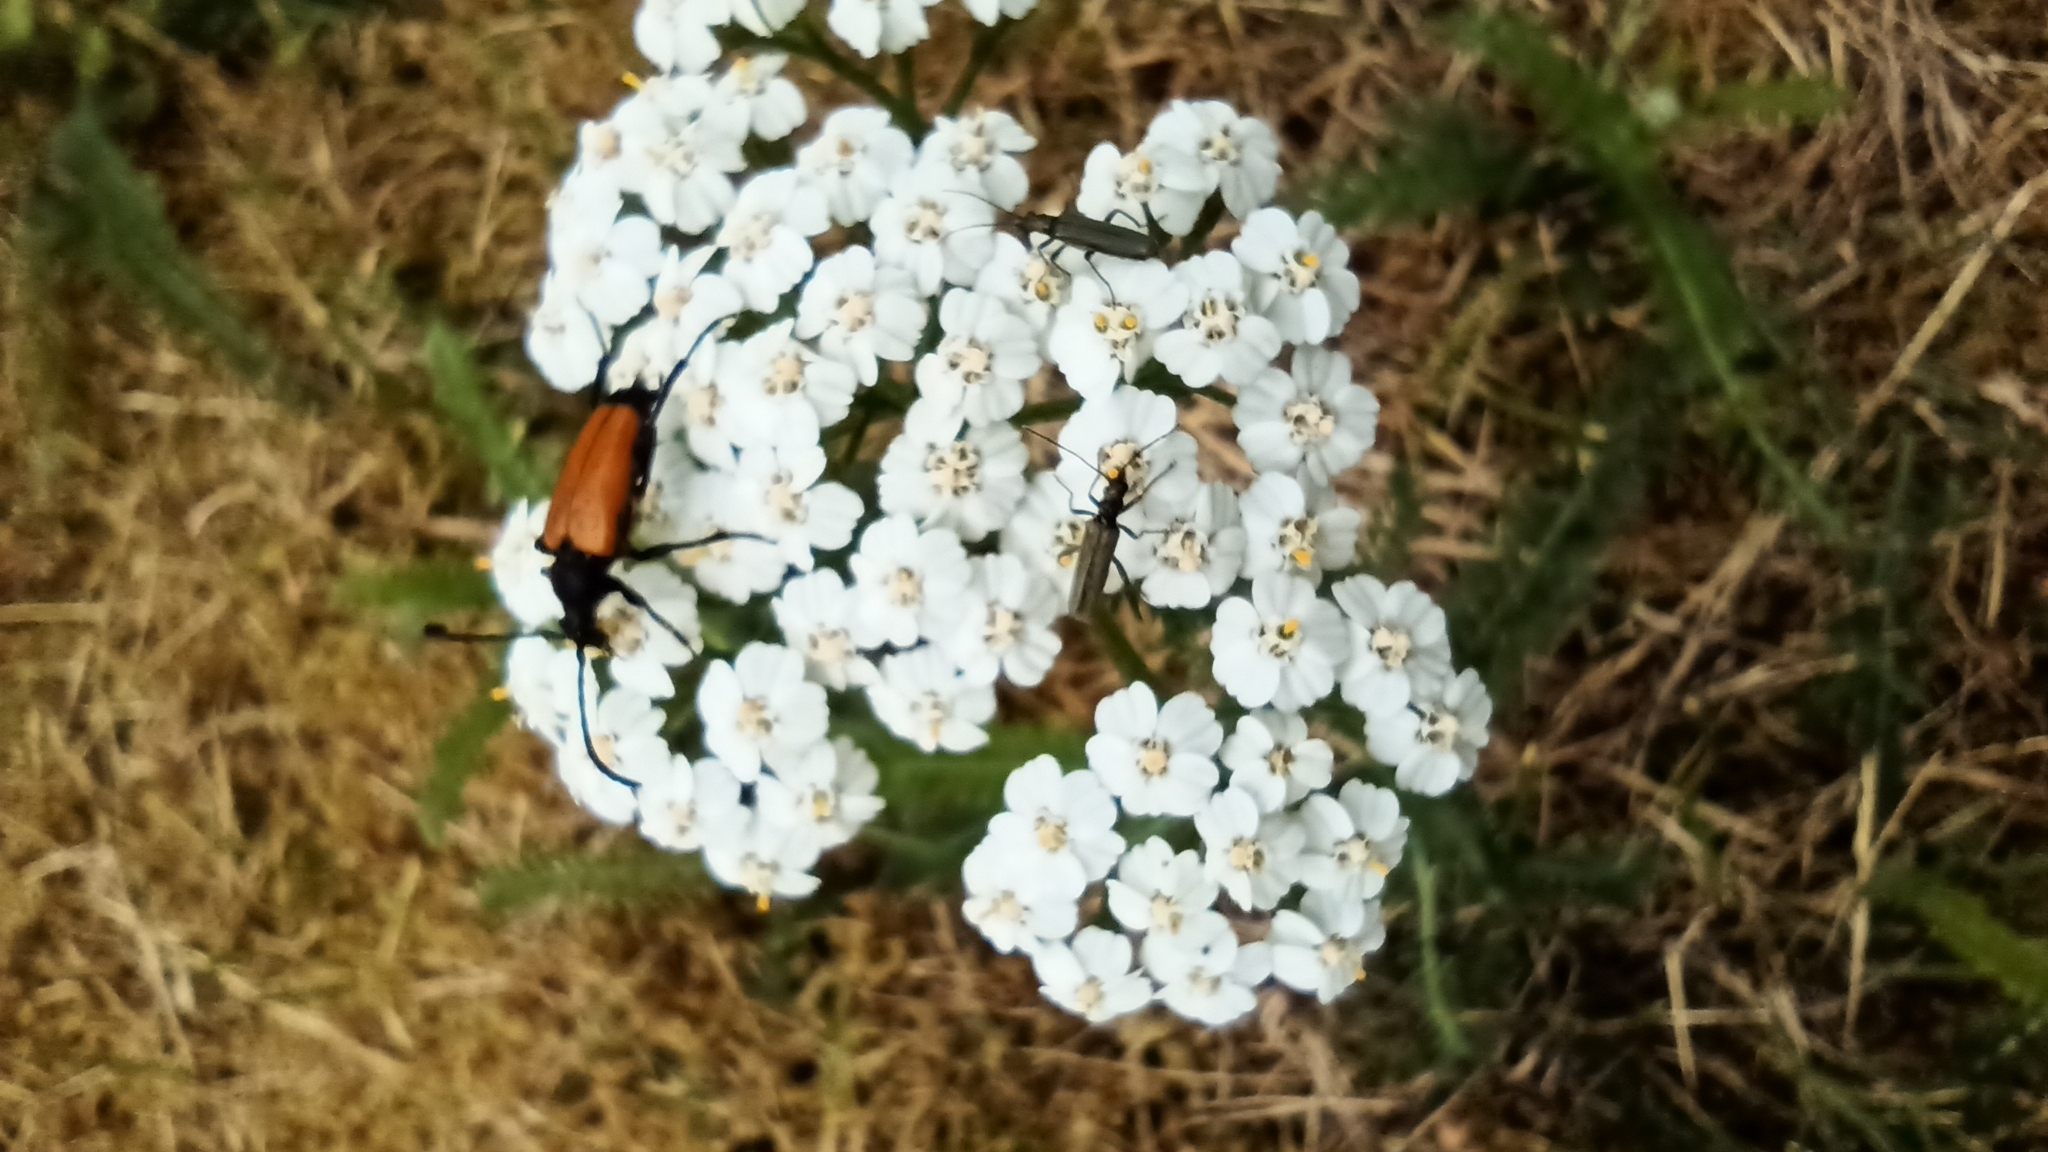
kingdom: Animalia
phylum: Arthropoda
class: Insecta
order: Coleoptera
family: Cerambycidae
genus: Paracorymbia
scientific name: Paracorymbia fulva
